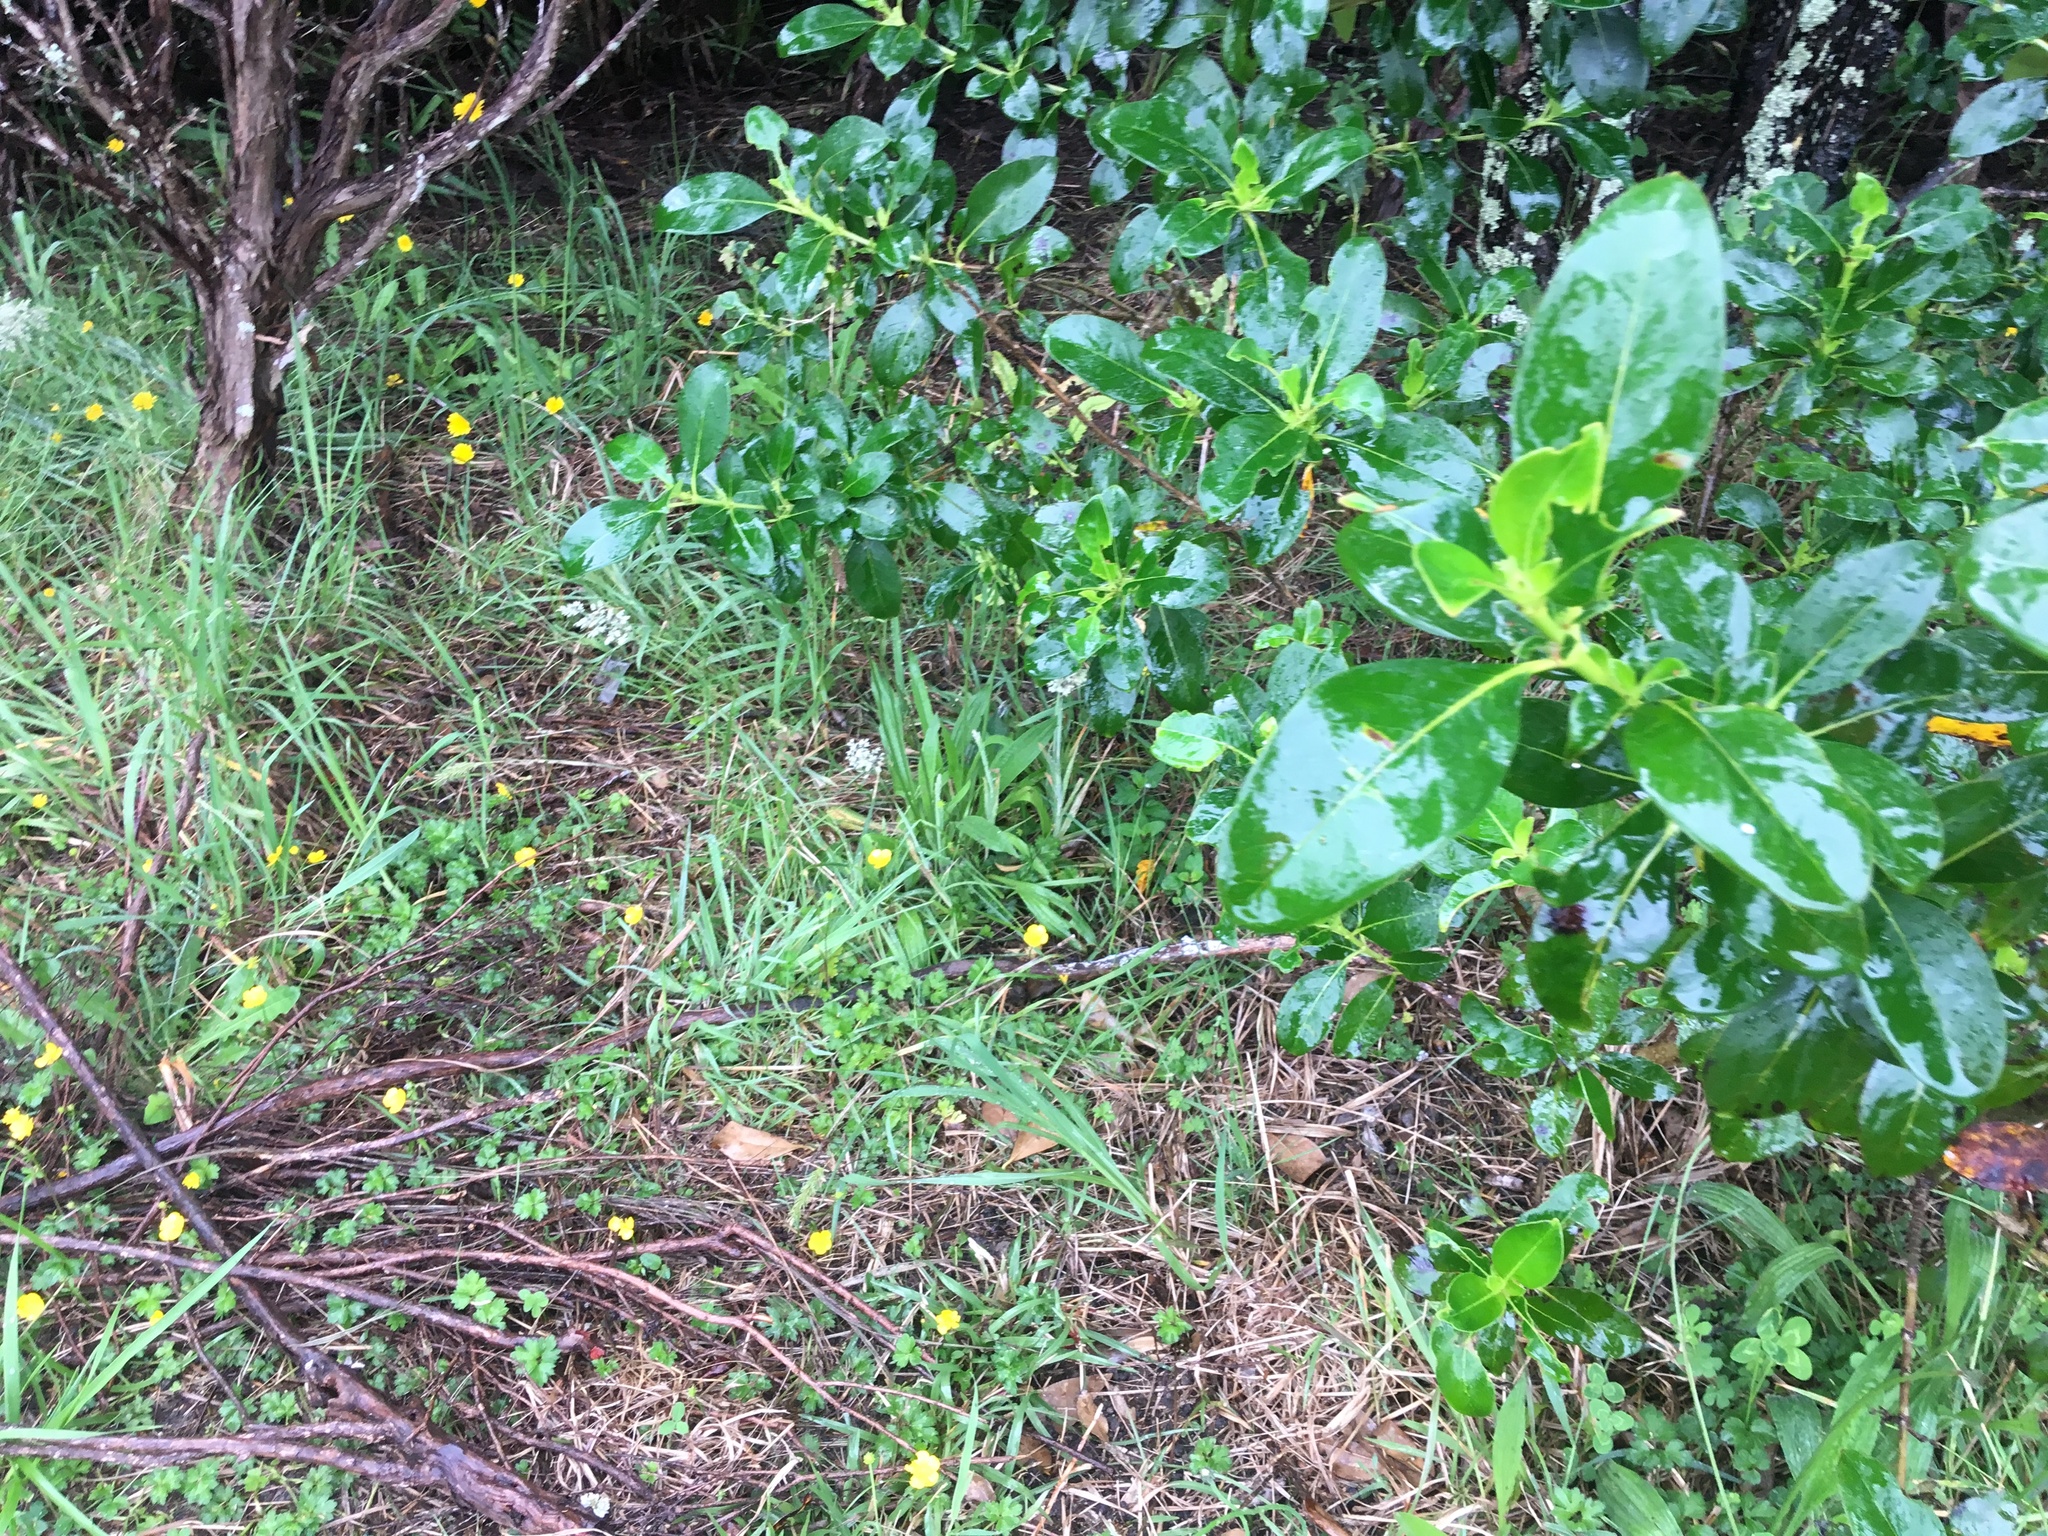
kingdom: Plantae
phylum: Tracheophyta
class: Magnoliopsida
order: Gentianales
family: Rubiaceae
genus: Coprosma
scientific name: Coprosma robusta
